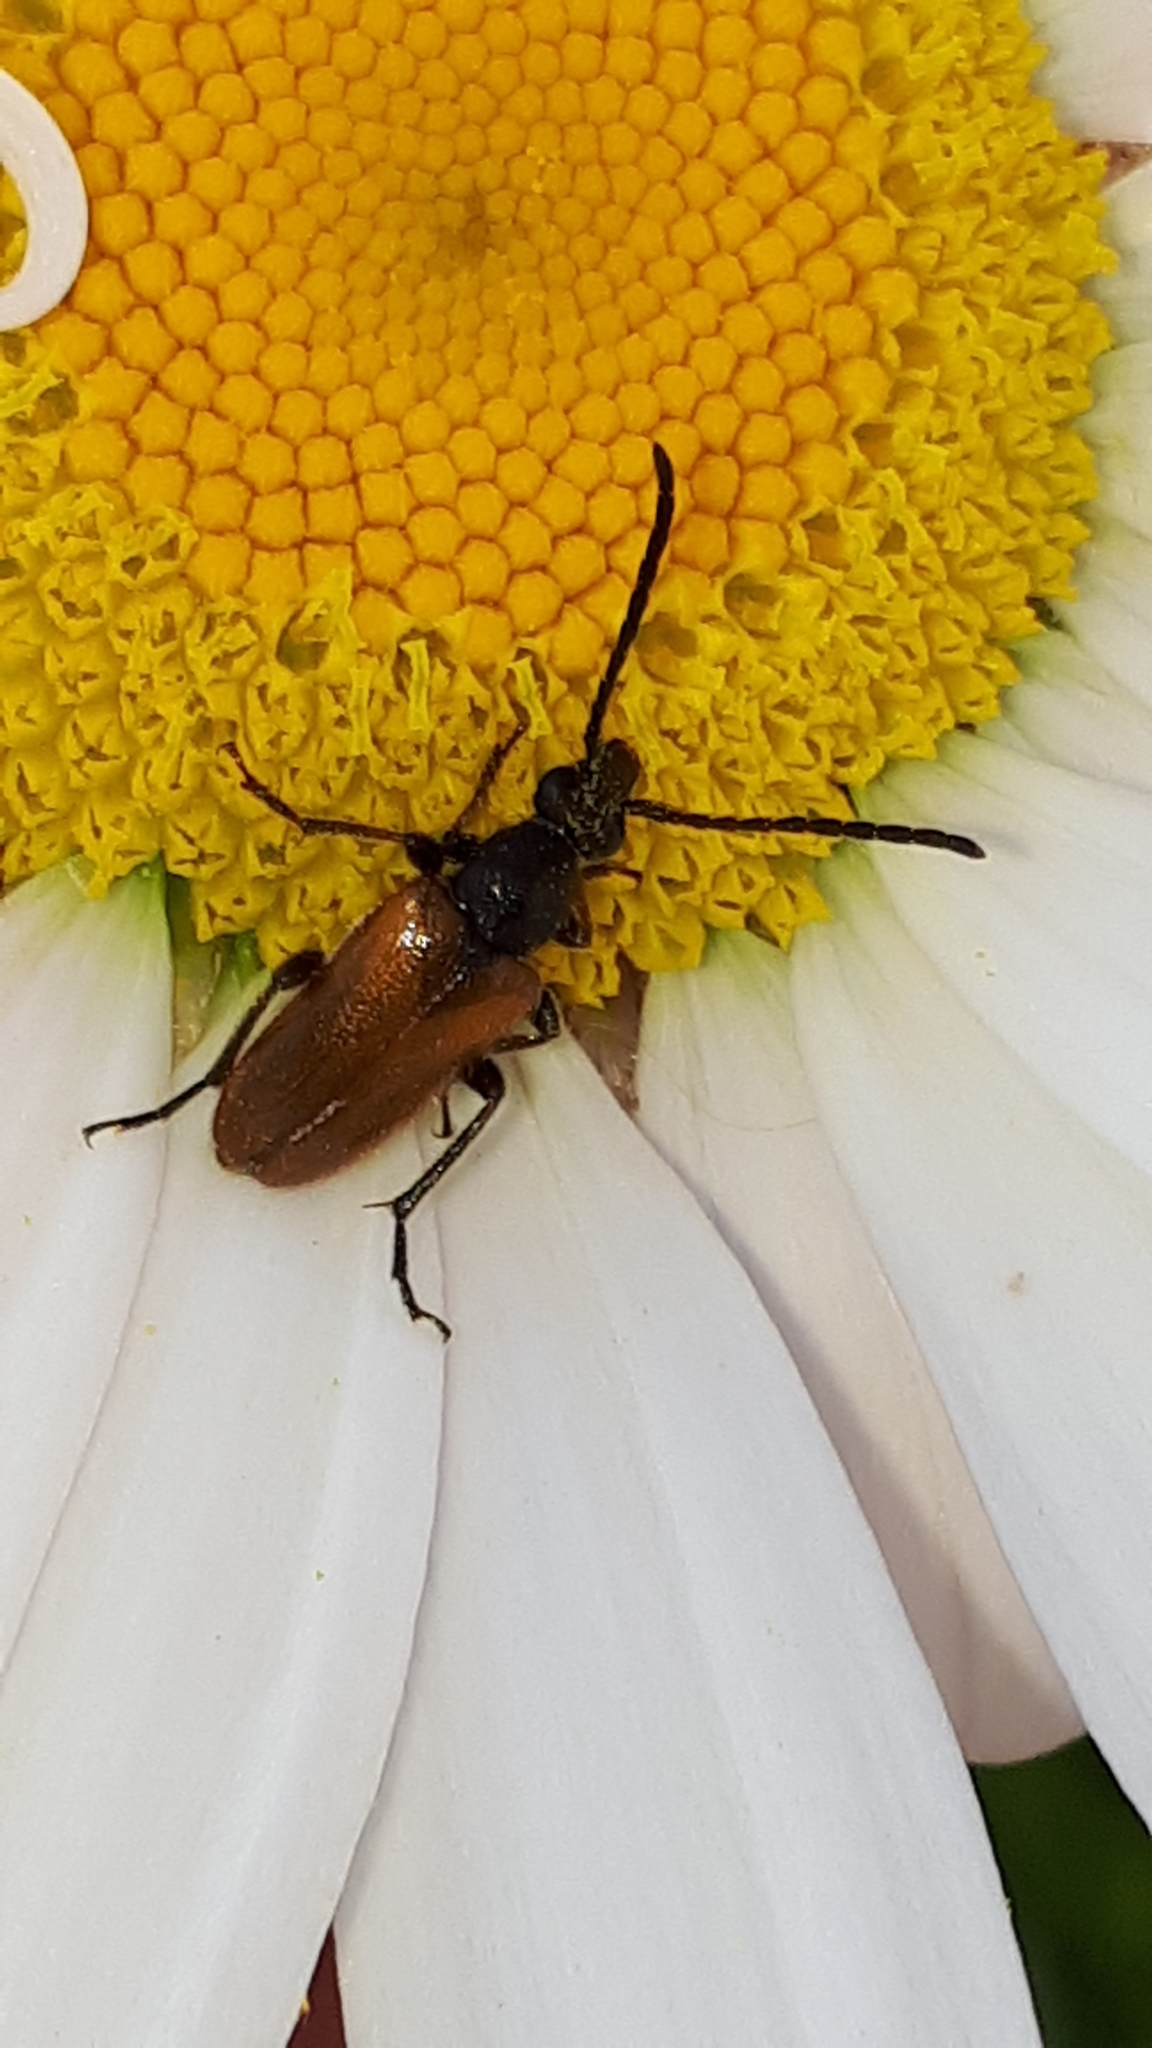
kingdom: Animalia
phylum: Arthropoda
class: Insecta
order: Coleoptera
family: Cerambycidae
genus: Pseudovadonia
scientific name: Pseudovadonia livida
